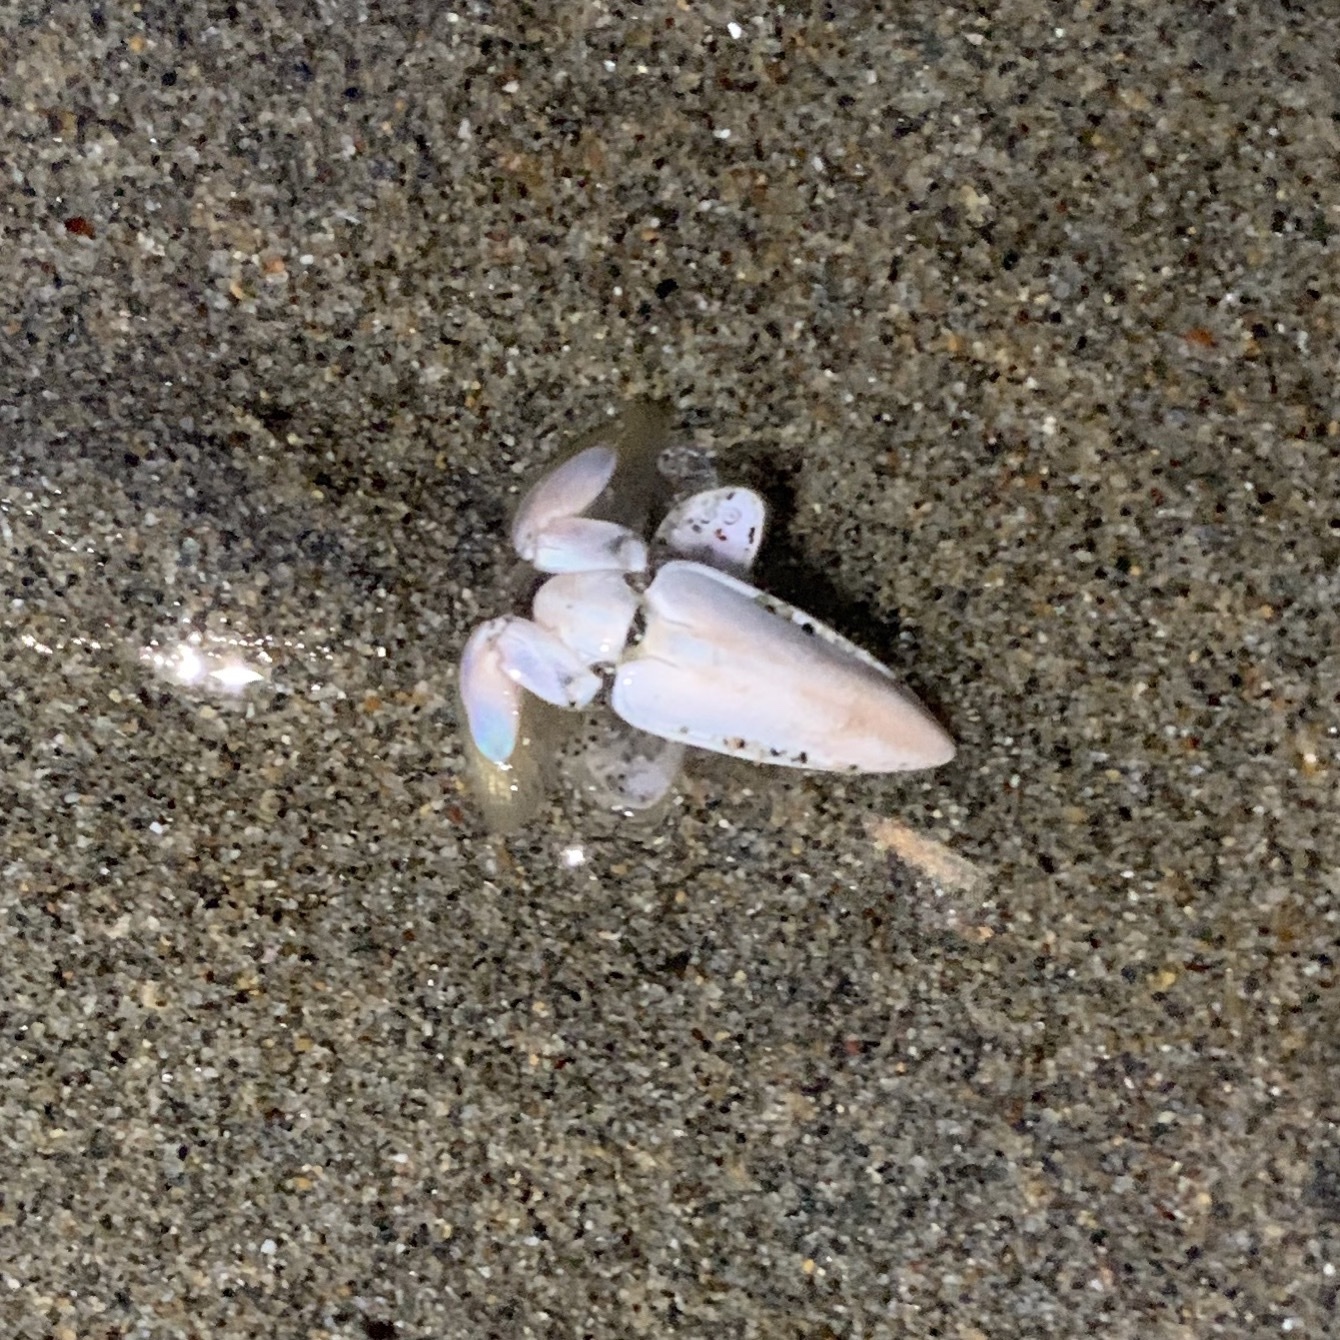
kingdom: Animalia
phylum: Arthropoda
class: Malacostraca
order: Decapoda
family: Hippidae
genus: Emerita
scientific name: Emerita analoga
